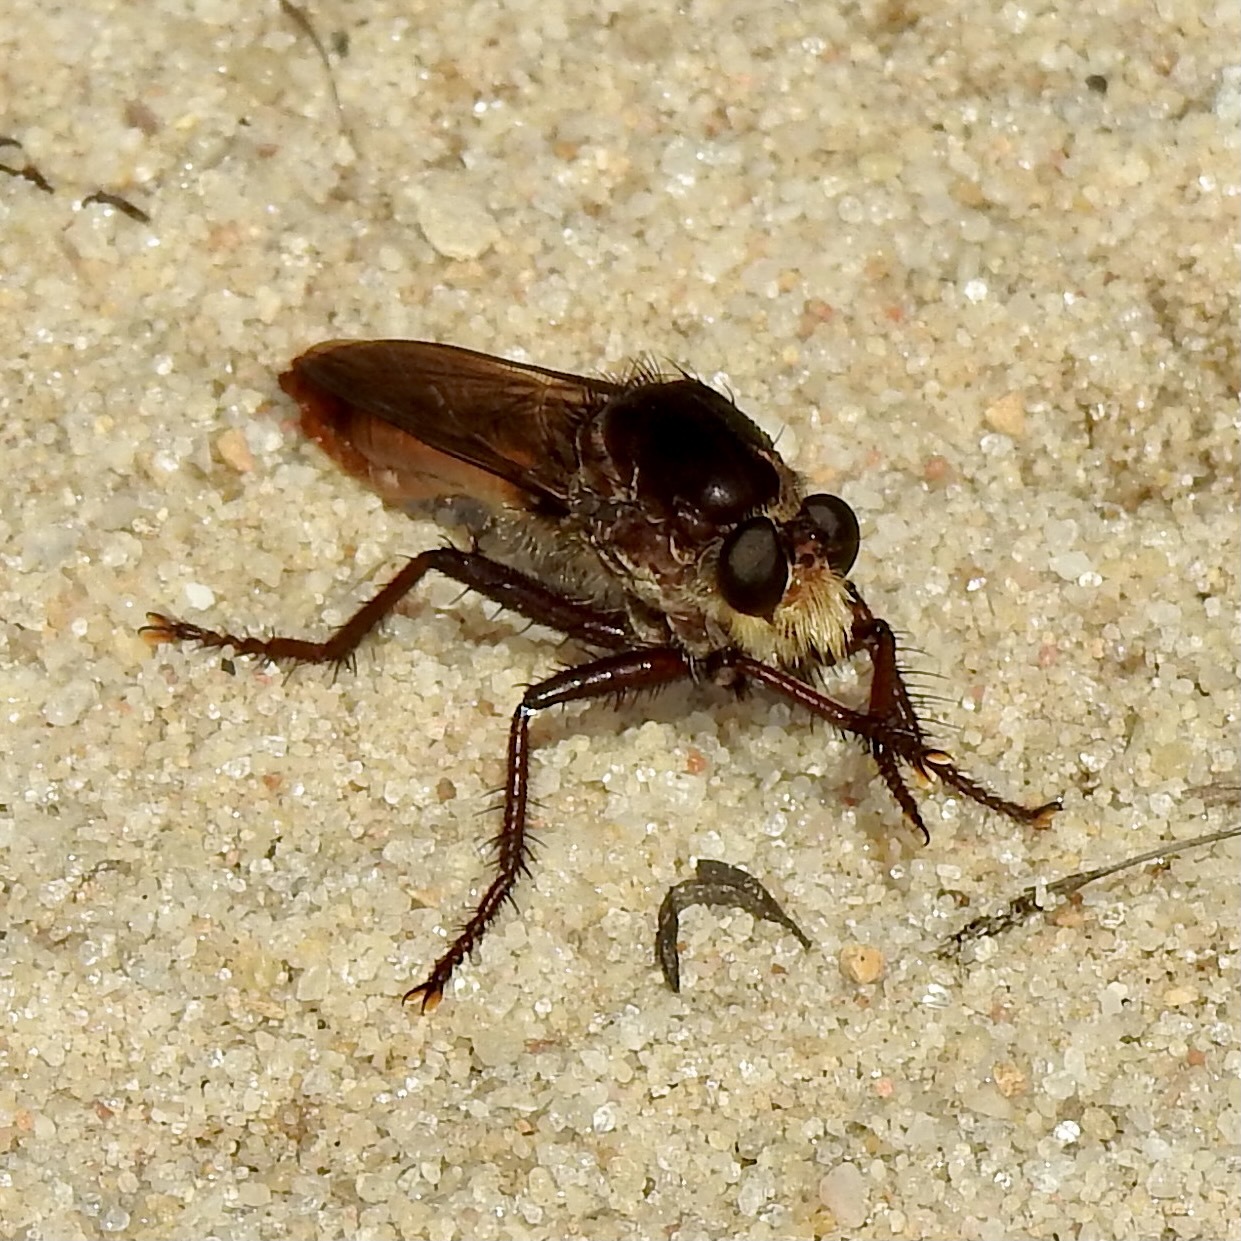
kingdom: Animalia
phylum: Arthropoda
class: Insecta
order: Diptera
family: Asilidae
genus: Proctacanthus
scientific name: Proctacanthus hinei
